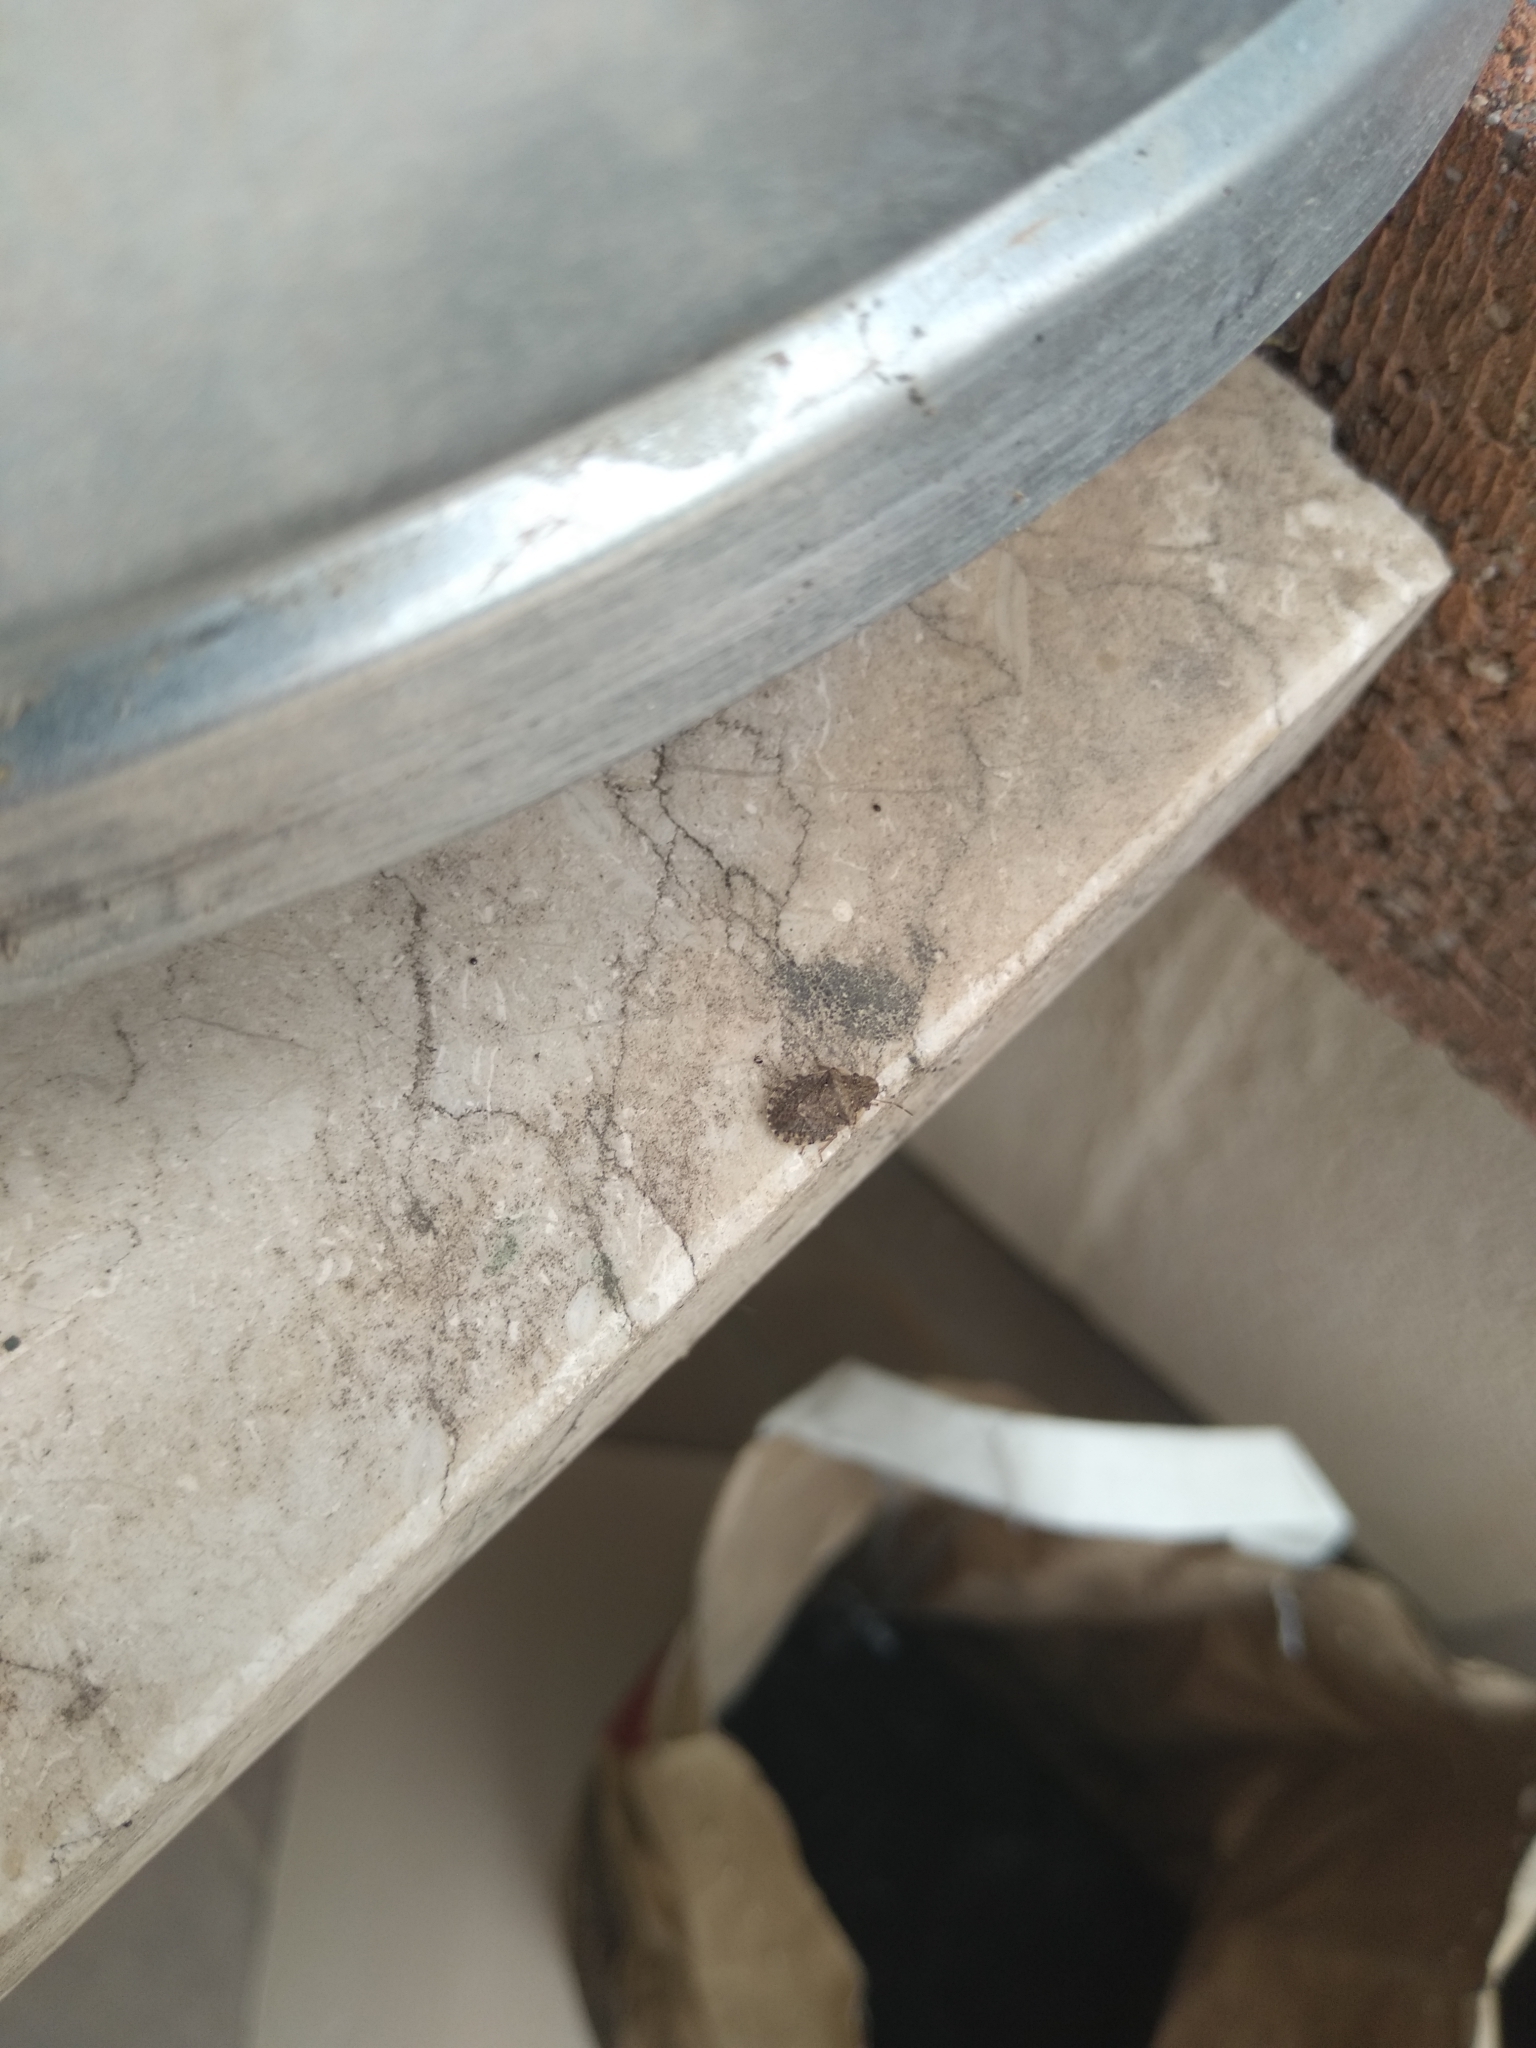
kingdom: Animalia
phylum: Arthropoda
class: Insecta
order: Hemiptera
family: Pentatomidae
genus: Sciocoris
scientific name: Sciocoris sideritidis
